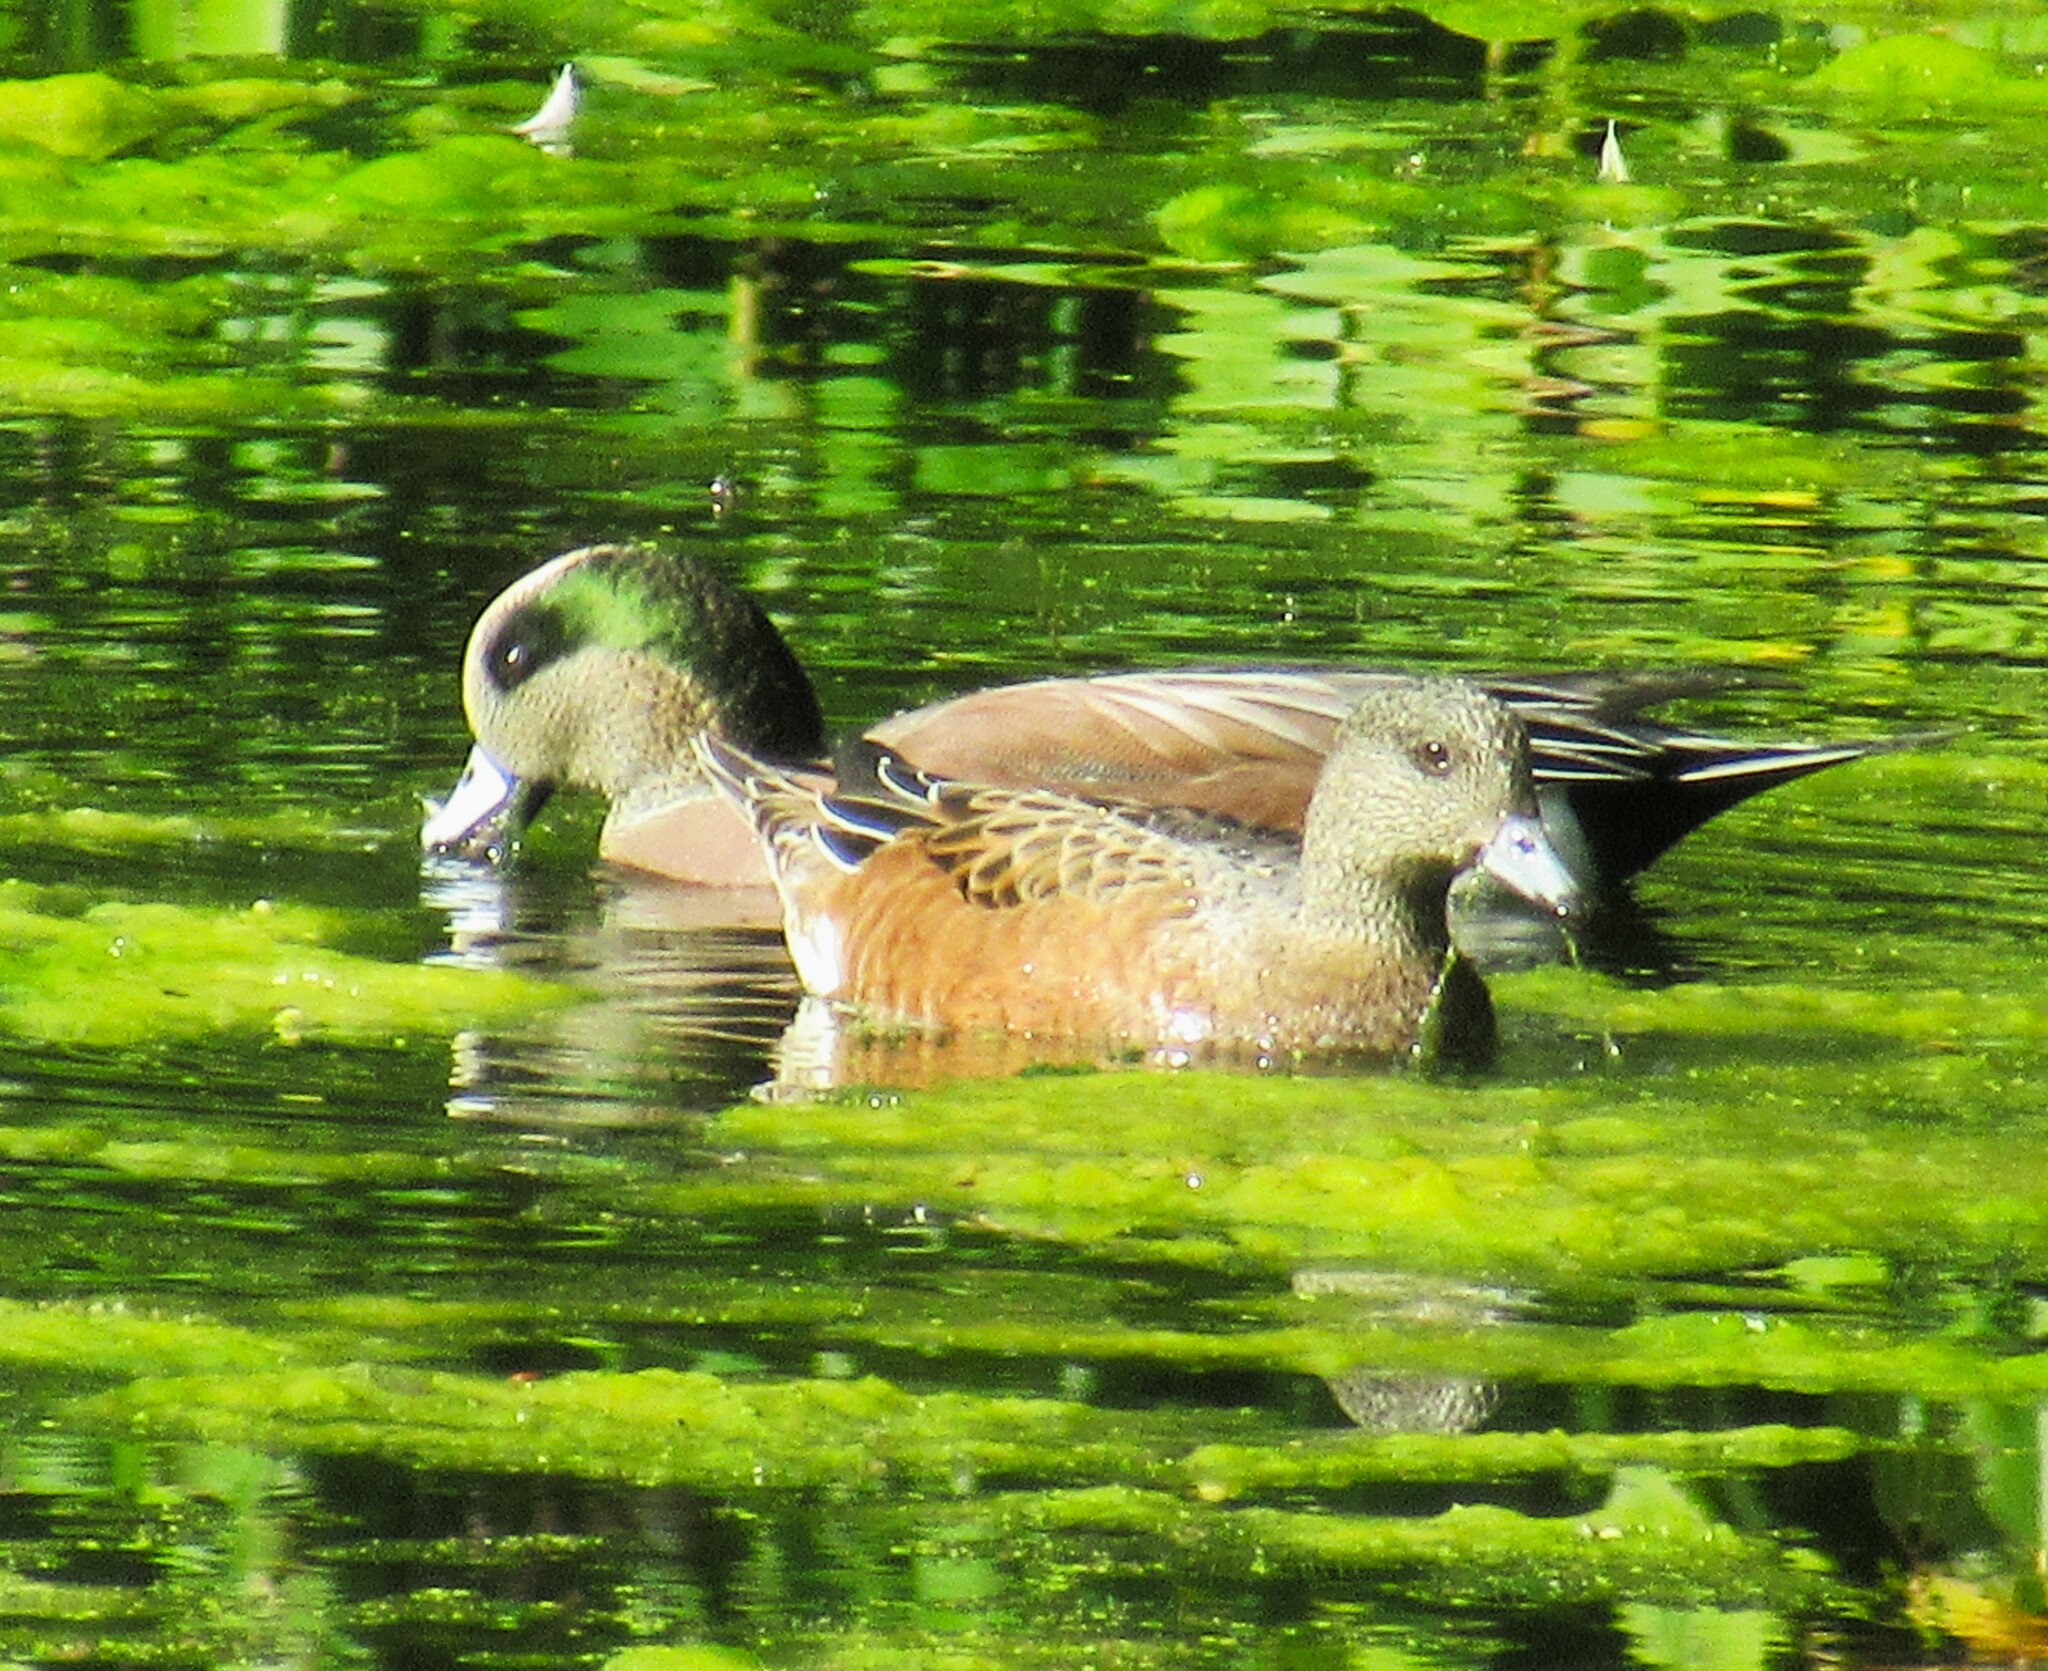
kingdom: Animalia
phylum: Chordata
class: Aves
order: Anseriformes
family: Anatidae
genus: Mareca
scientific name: Mareca americana
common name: American wigeon
